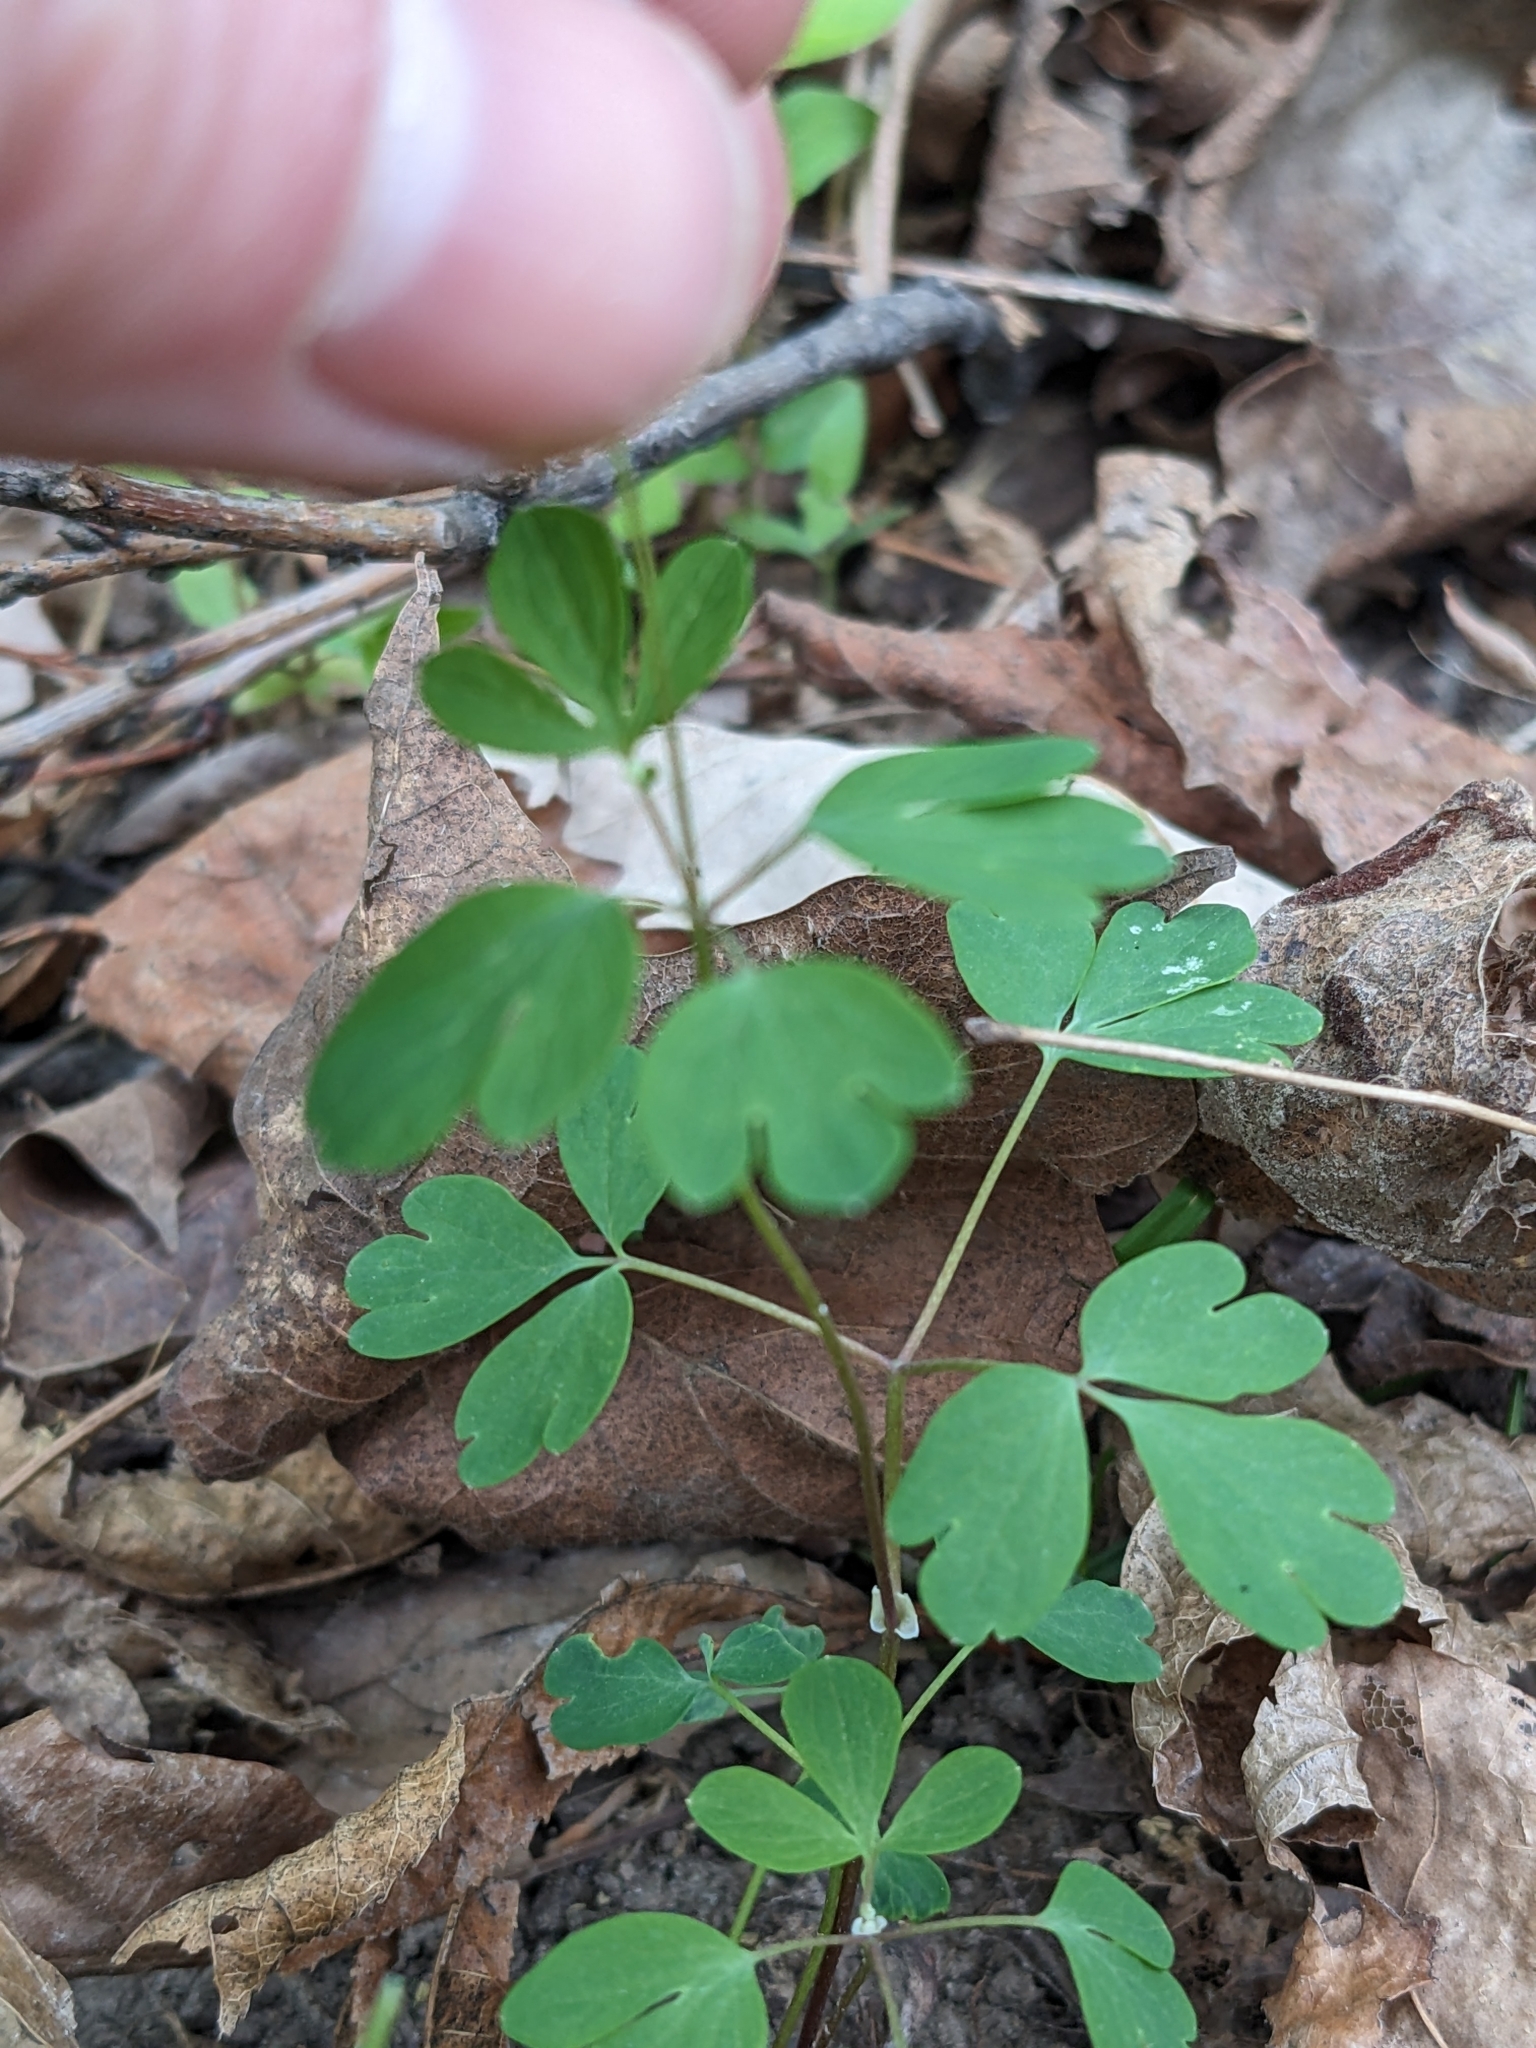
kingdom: Plantae
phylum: Tracheophyta
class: Magnoliopsida
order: Ranunculales
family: Ranunculaceae
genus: Enemion
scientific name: Enemion biternatum
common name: Eastern false rue-anemone
